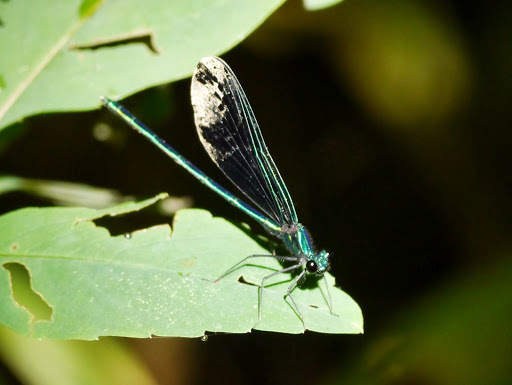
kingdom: Animalia
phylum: Arthropoda
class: Insecta
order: Odonata
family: Calopterygidae
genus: Calopteryx
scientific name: Calopteryx maculata
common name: Ebony jewelwing
